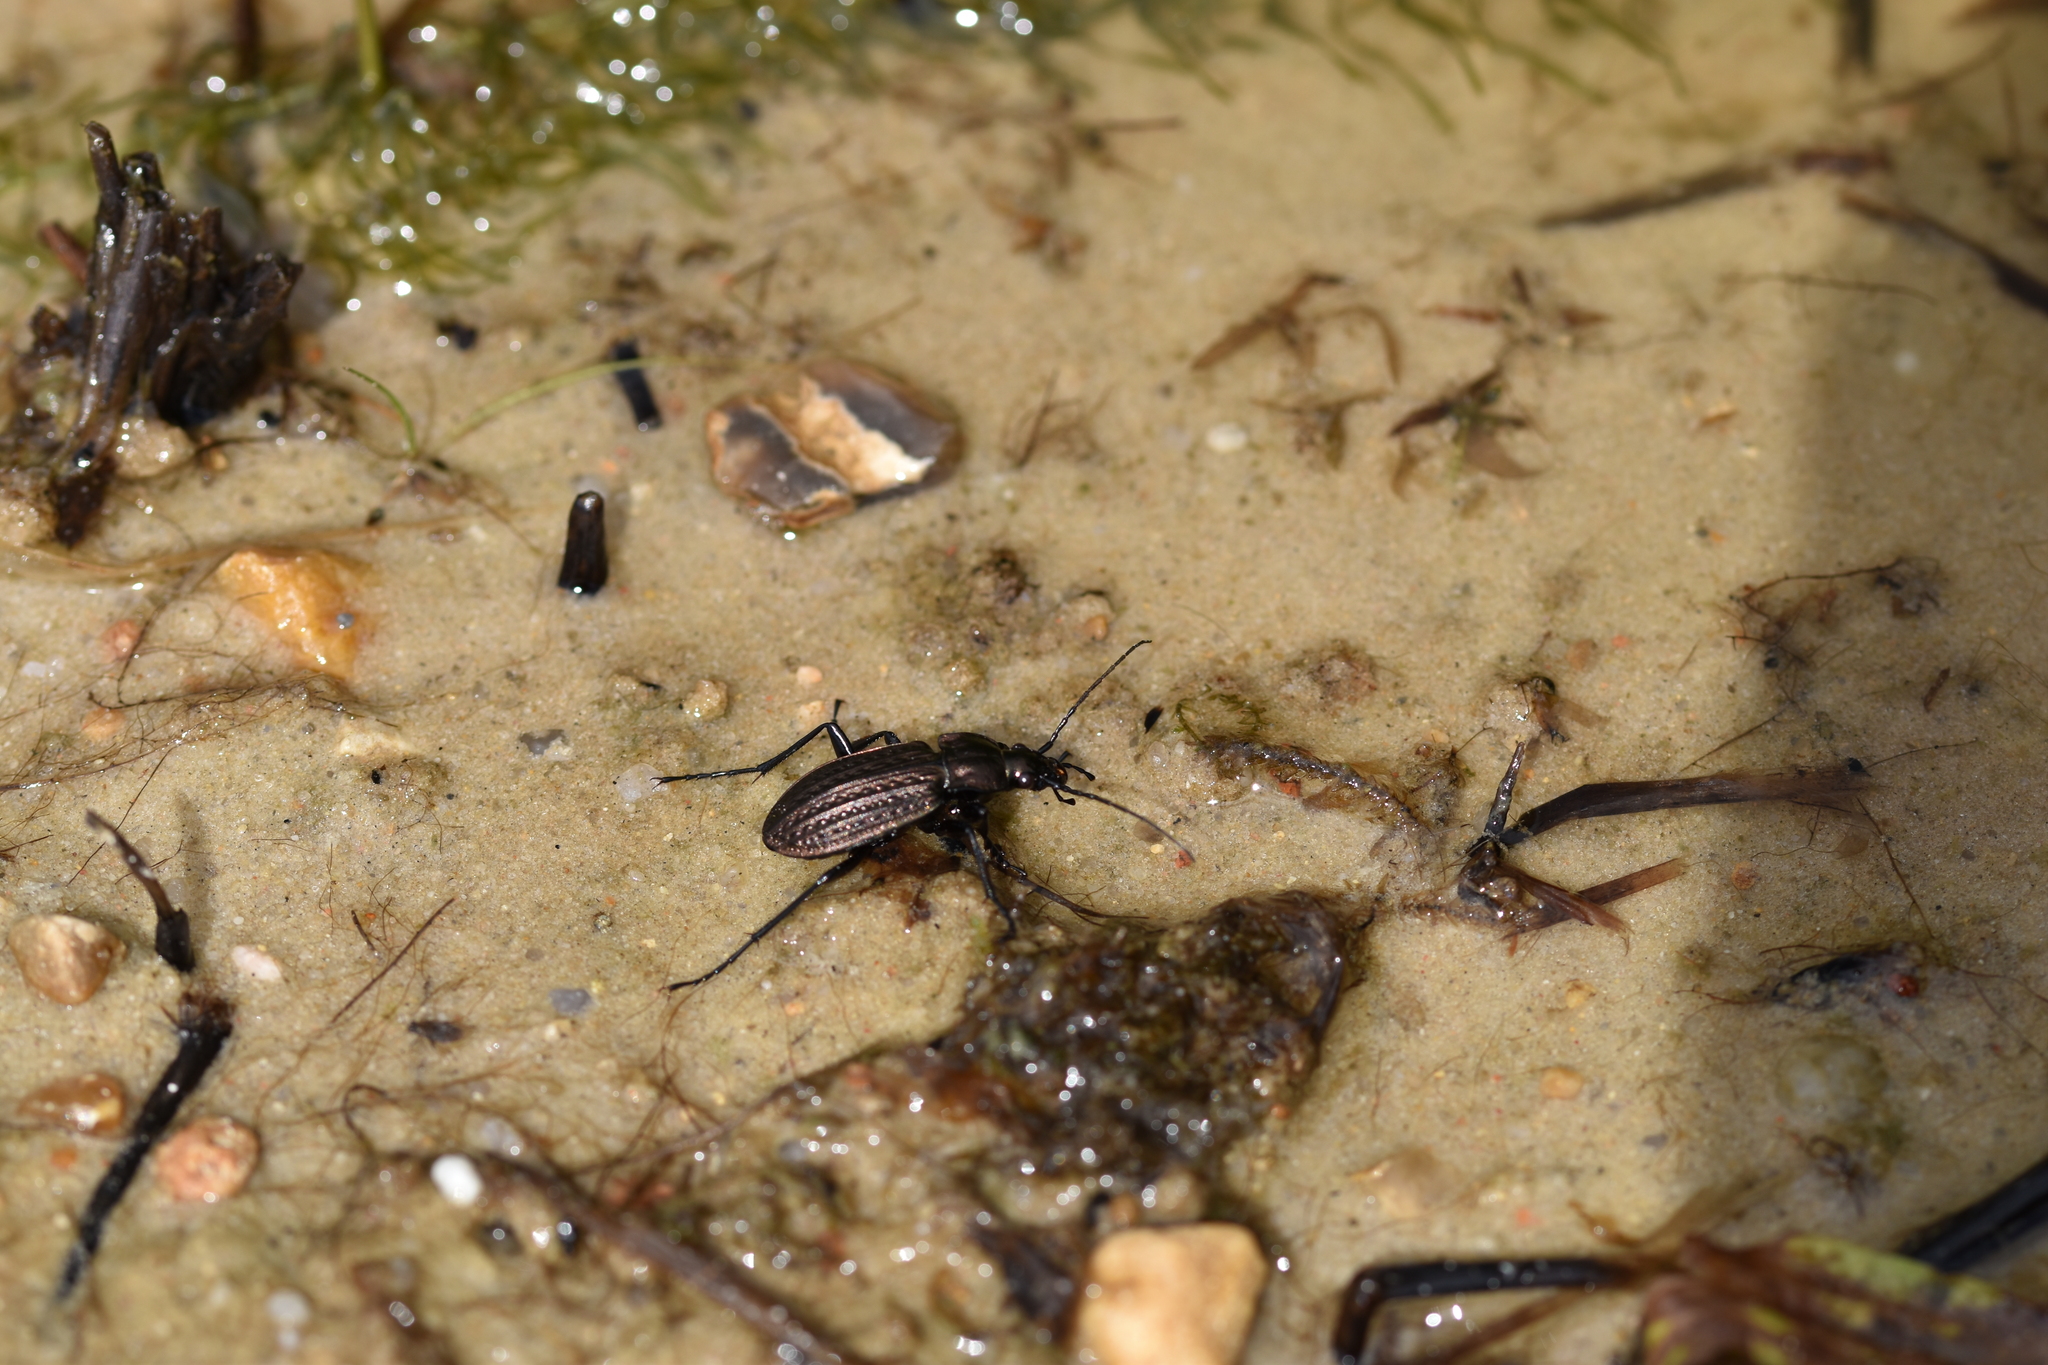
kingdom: Animalia
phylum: Arthropoda
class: Insecta
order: Coleoptera
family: Carabidae
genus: Carabus
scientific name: Carabus granulatus
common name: Granulate ground beetle
